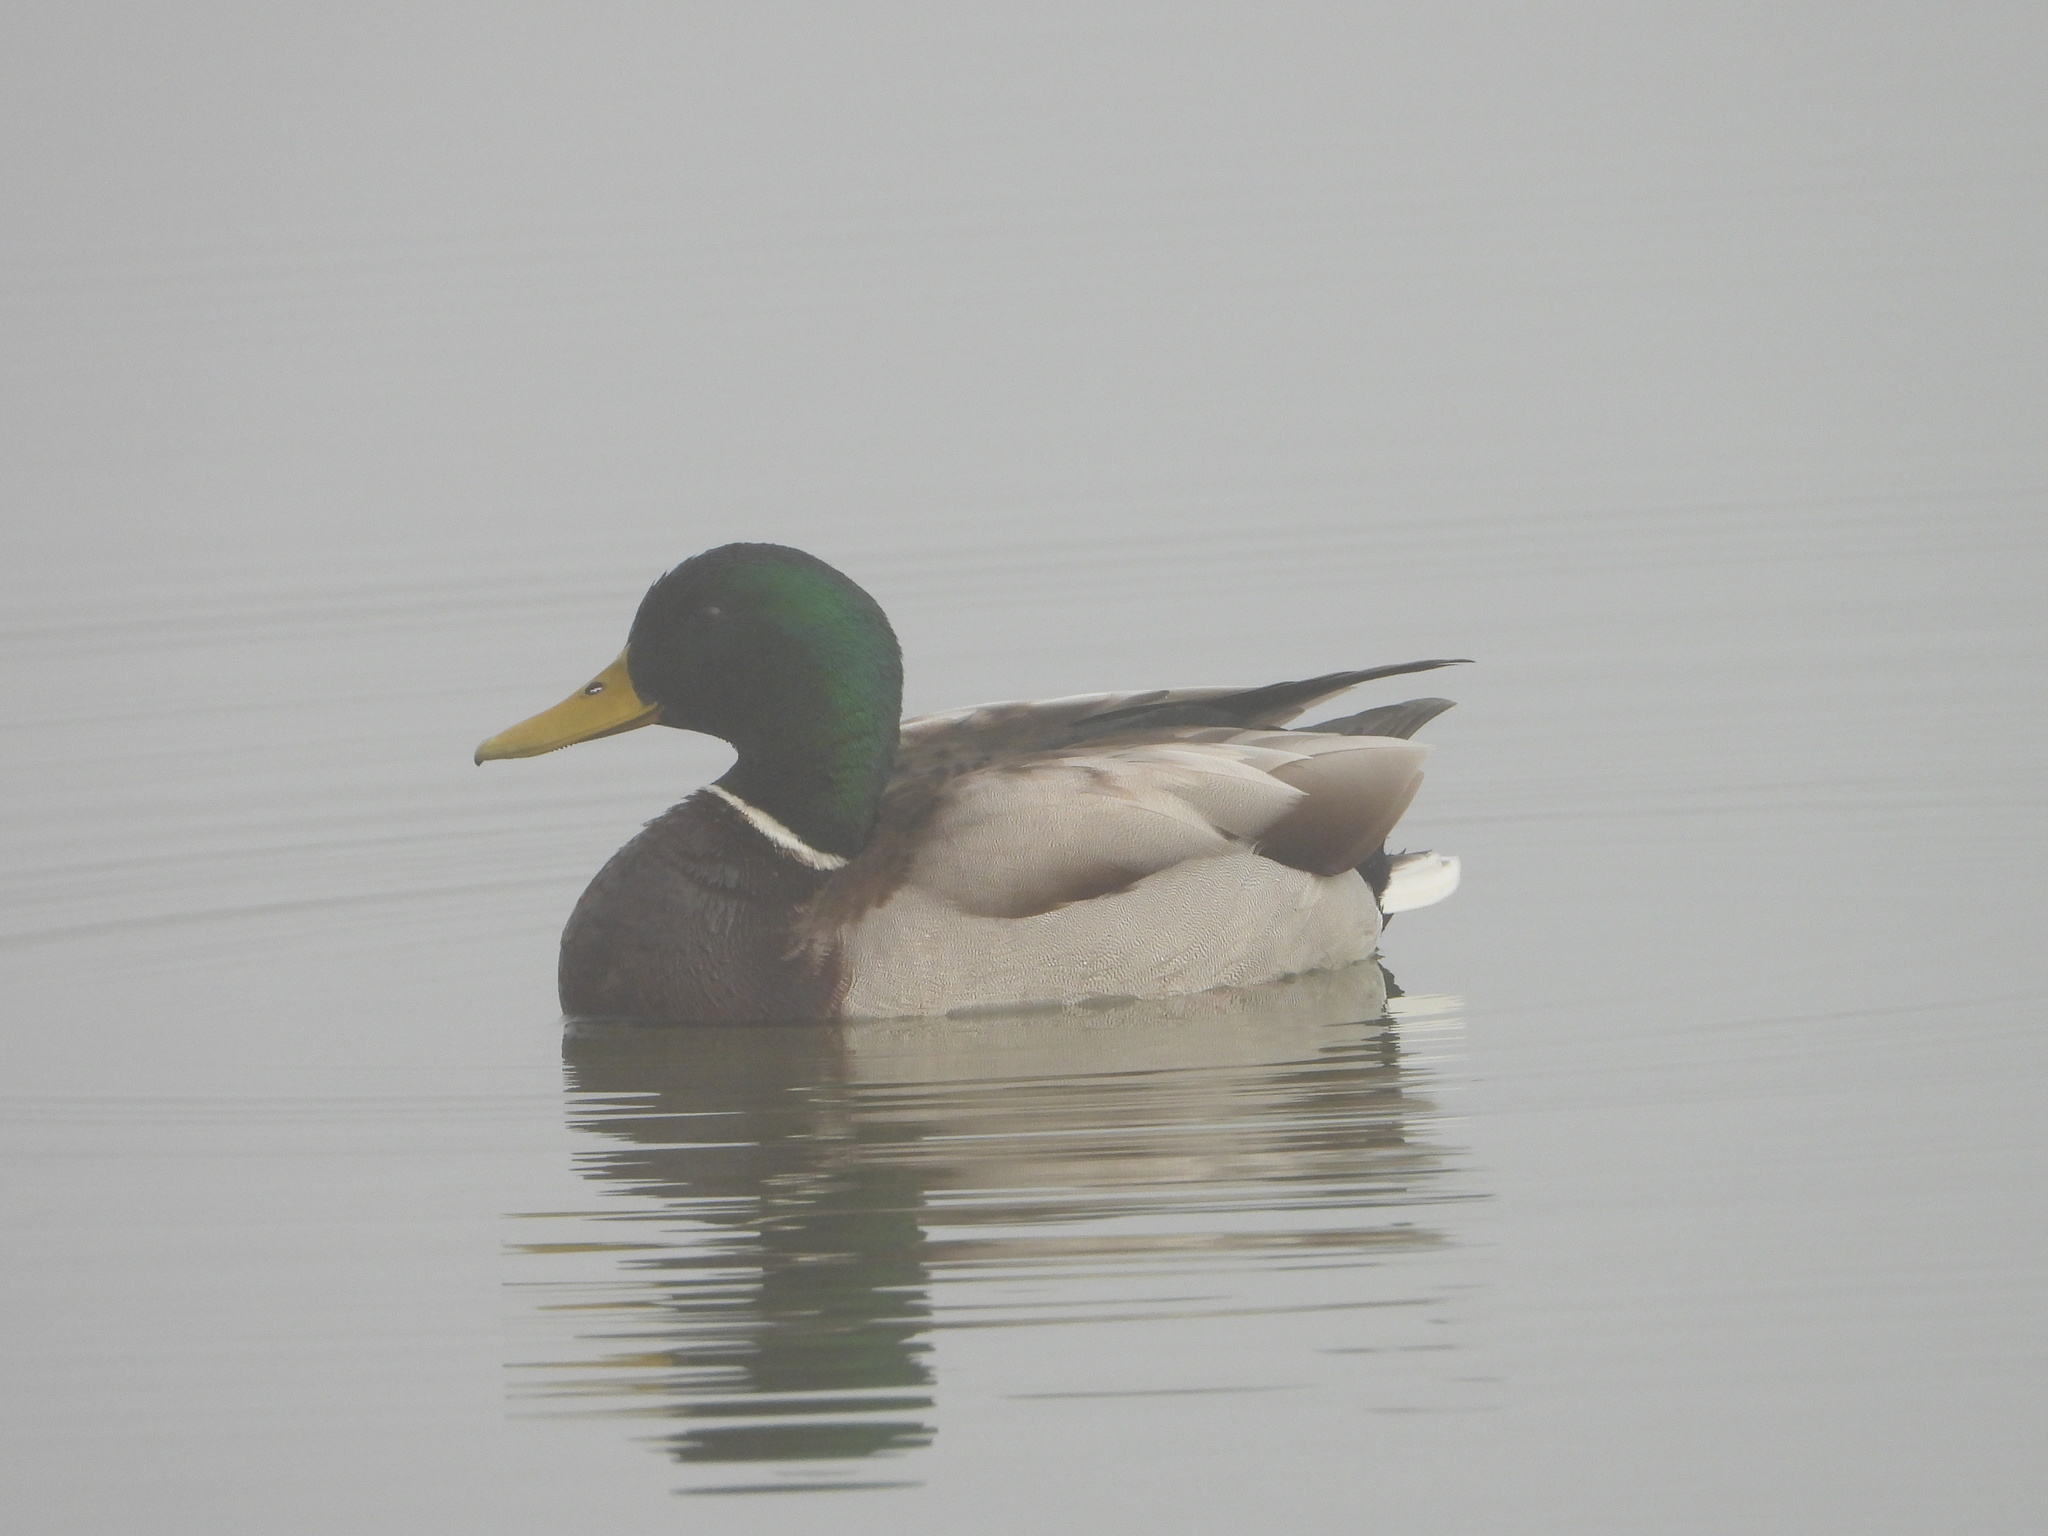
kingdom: Animalia
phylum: Chordata
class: Aves
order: Anseriformes
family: Anatidae
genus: Anas
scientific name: Anas platyrhynchos
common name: Mallard
